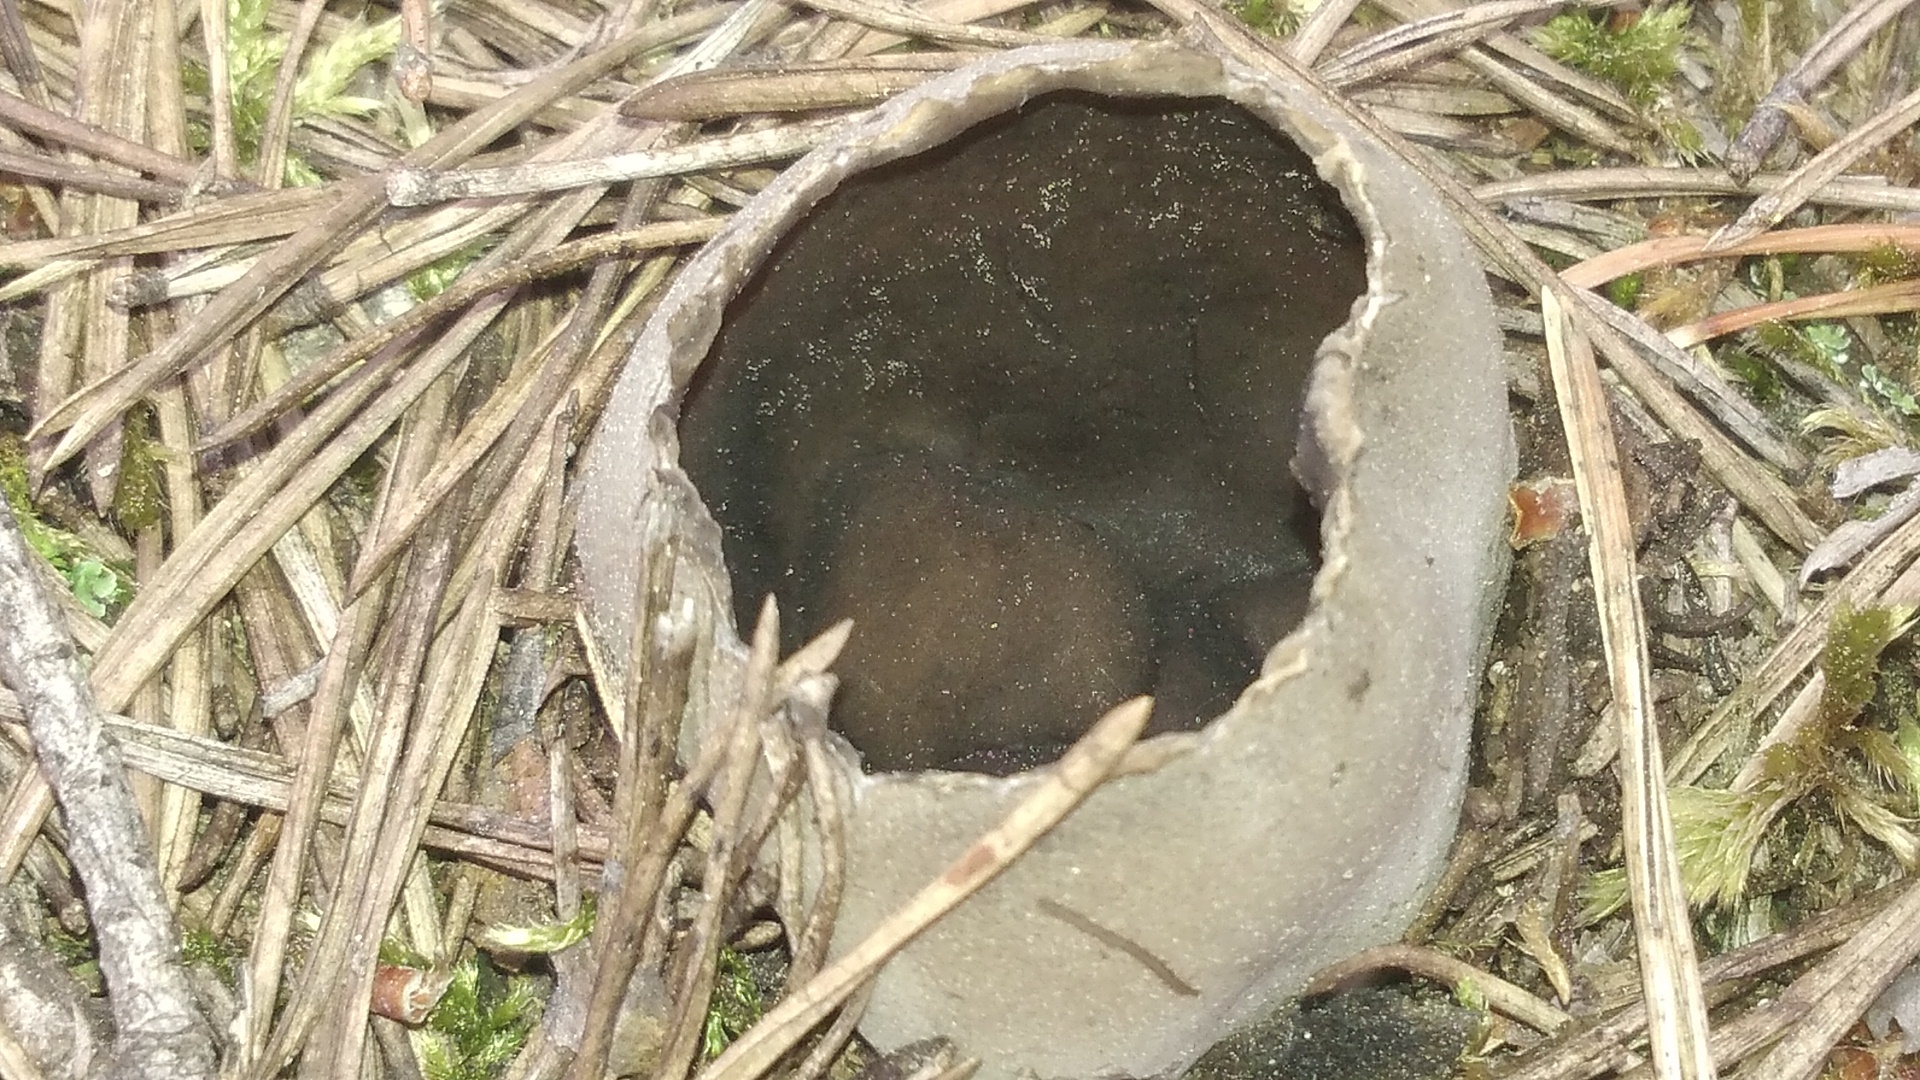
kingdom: Fungi
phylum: Ascomycota
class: Pezizomycetes
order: Pezizales
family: Helvellaceae
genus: Dissingia
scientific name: Dissingia leucomelaena
